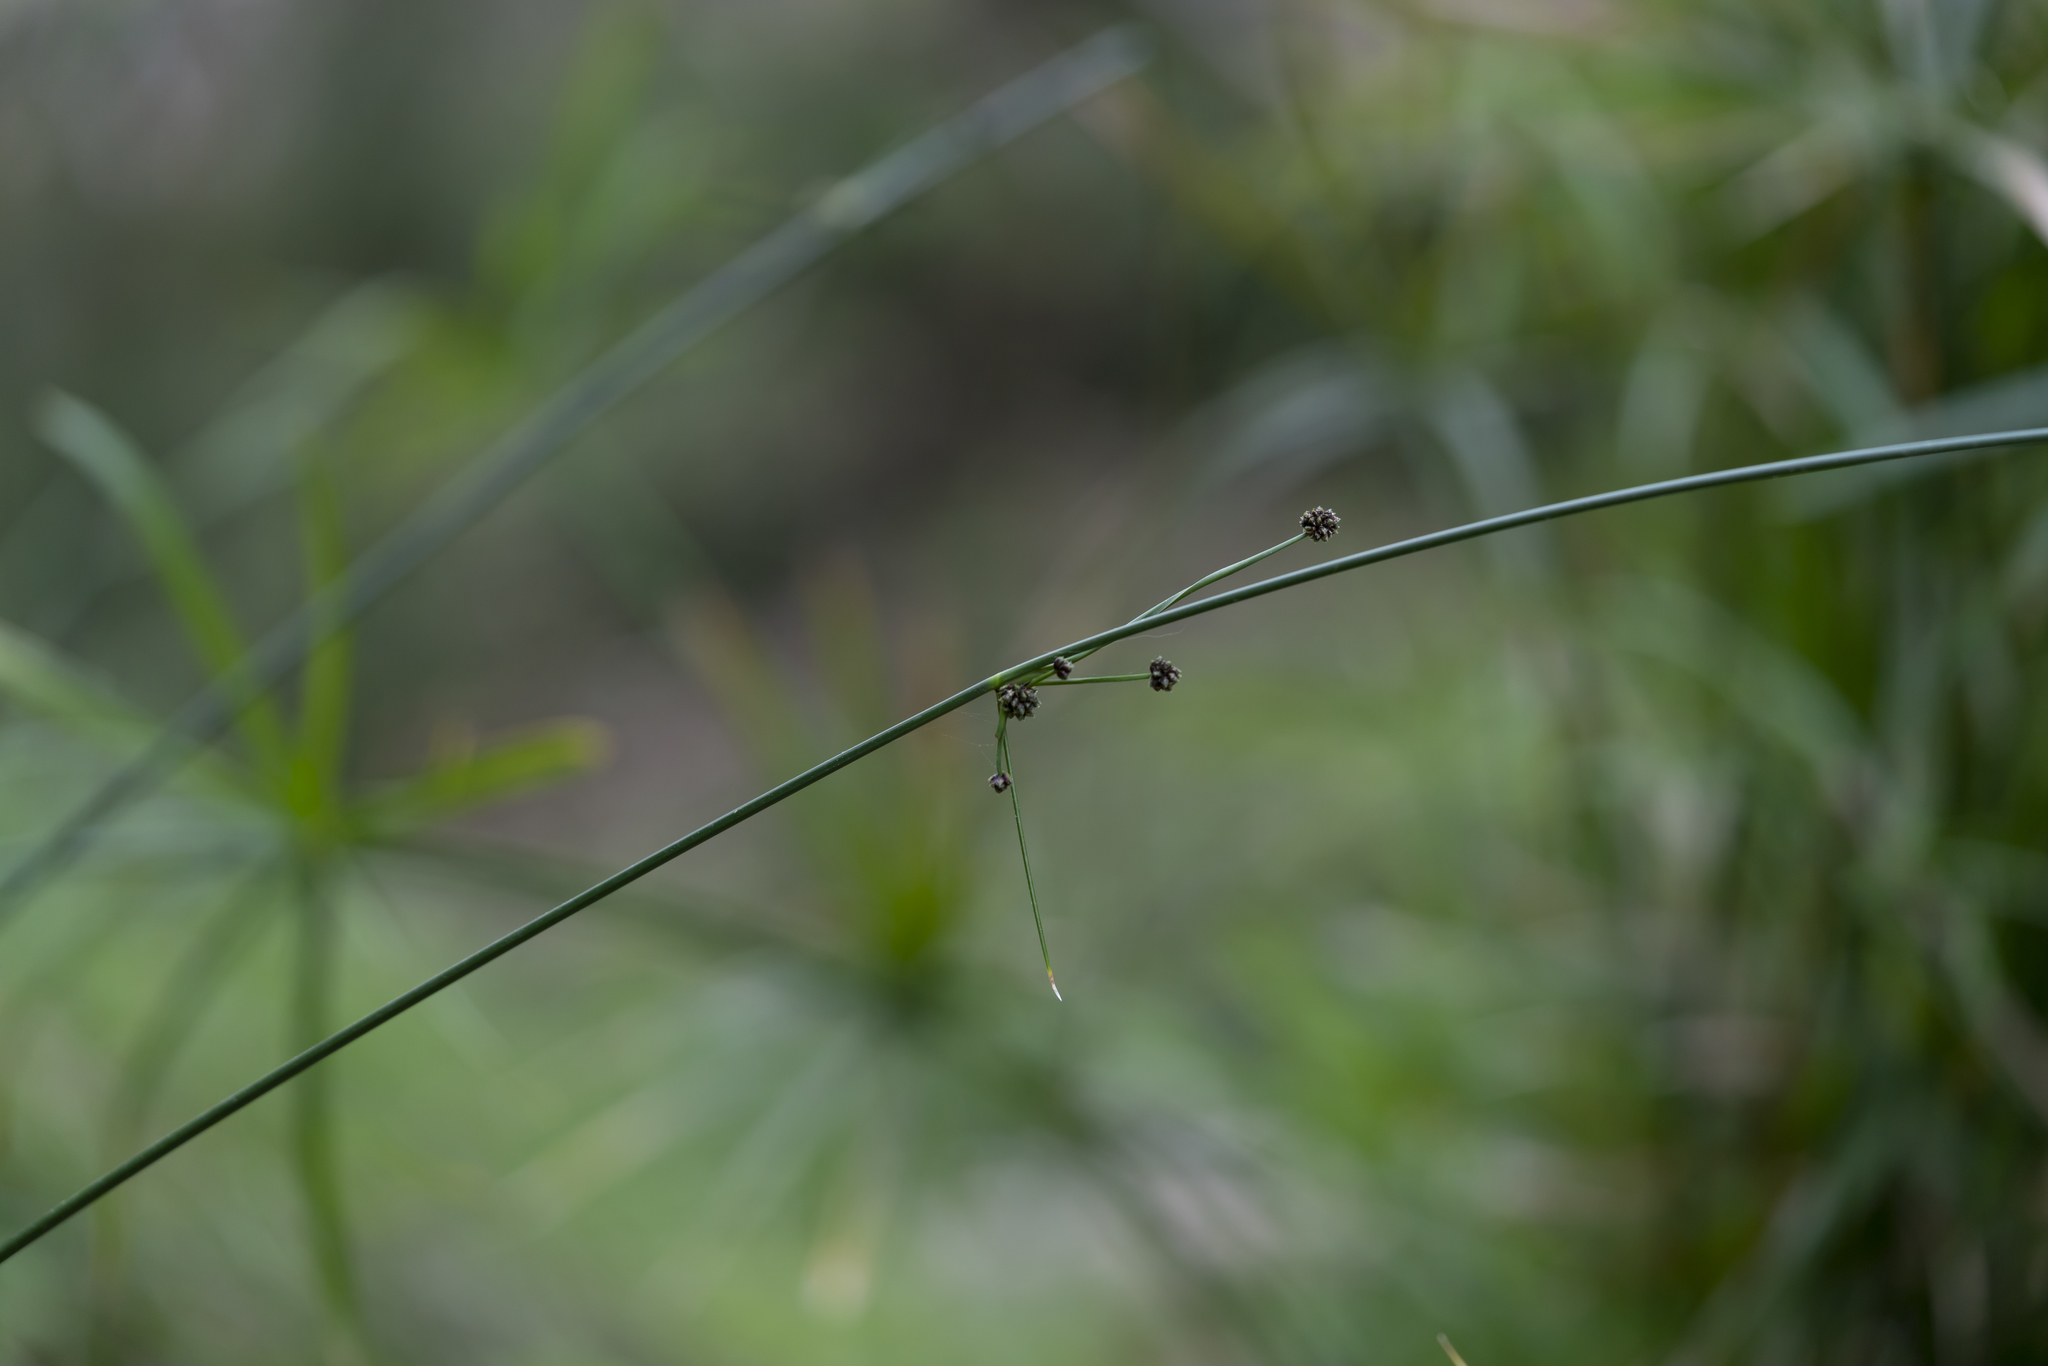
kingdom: Plantae
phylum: Tracheophyta
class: Liliopsida
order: Poales
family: Cyperaceae
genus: Scirpoides
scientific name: Scirpoides holoschoenus
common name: Round-headed club-rush
